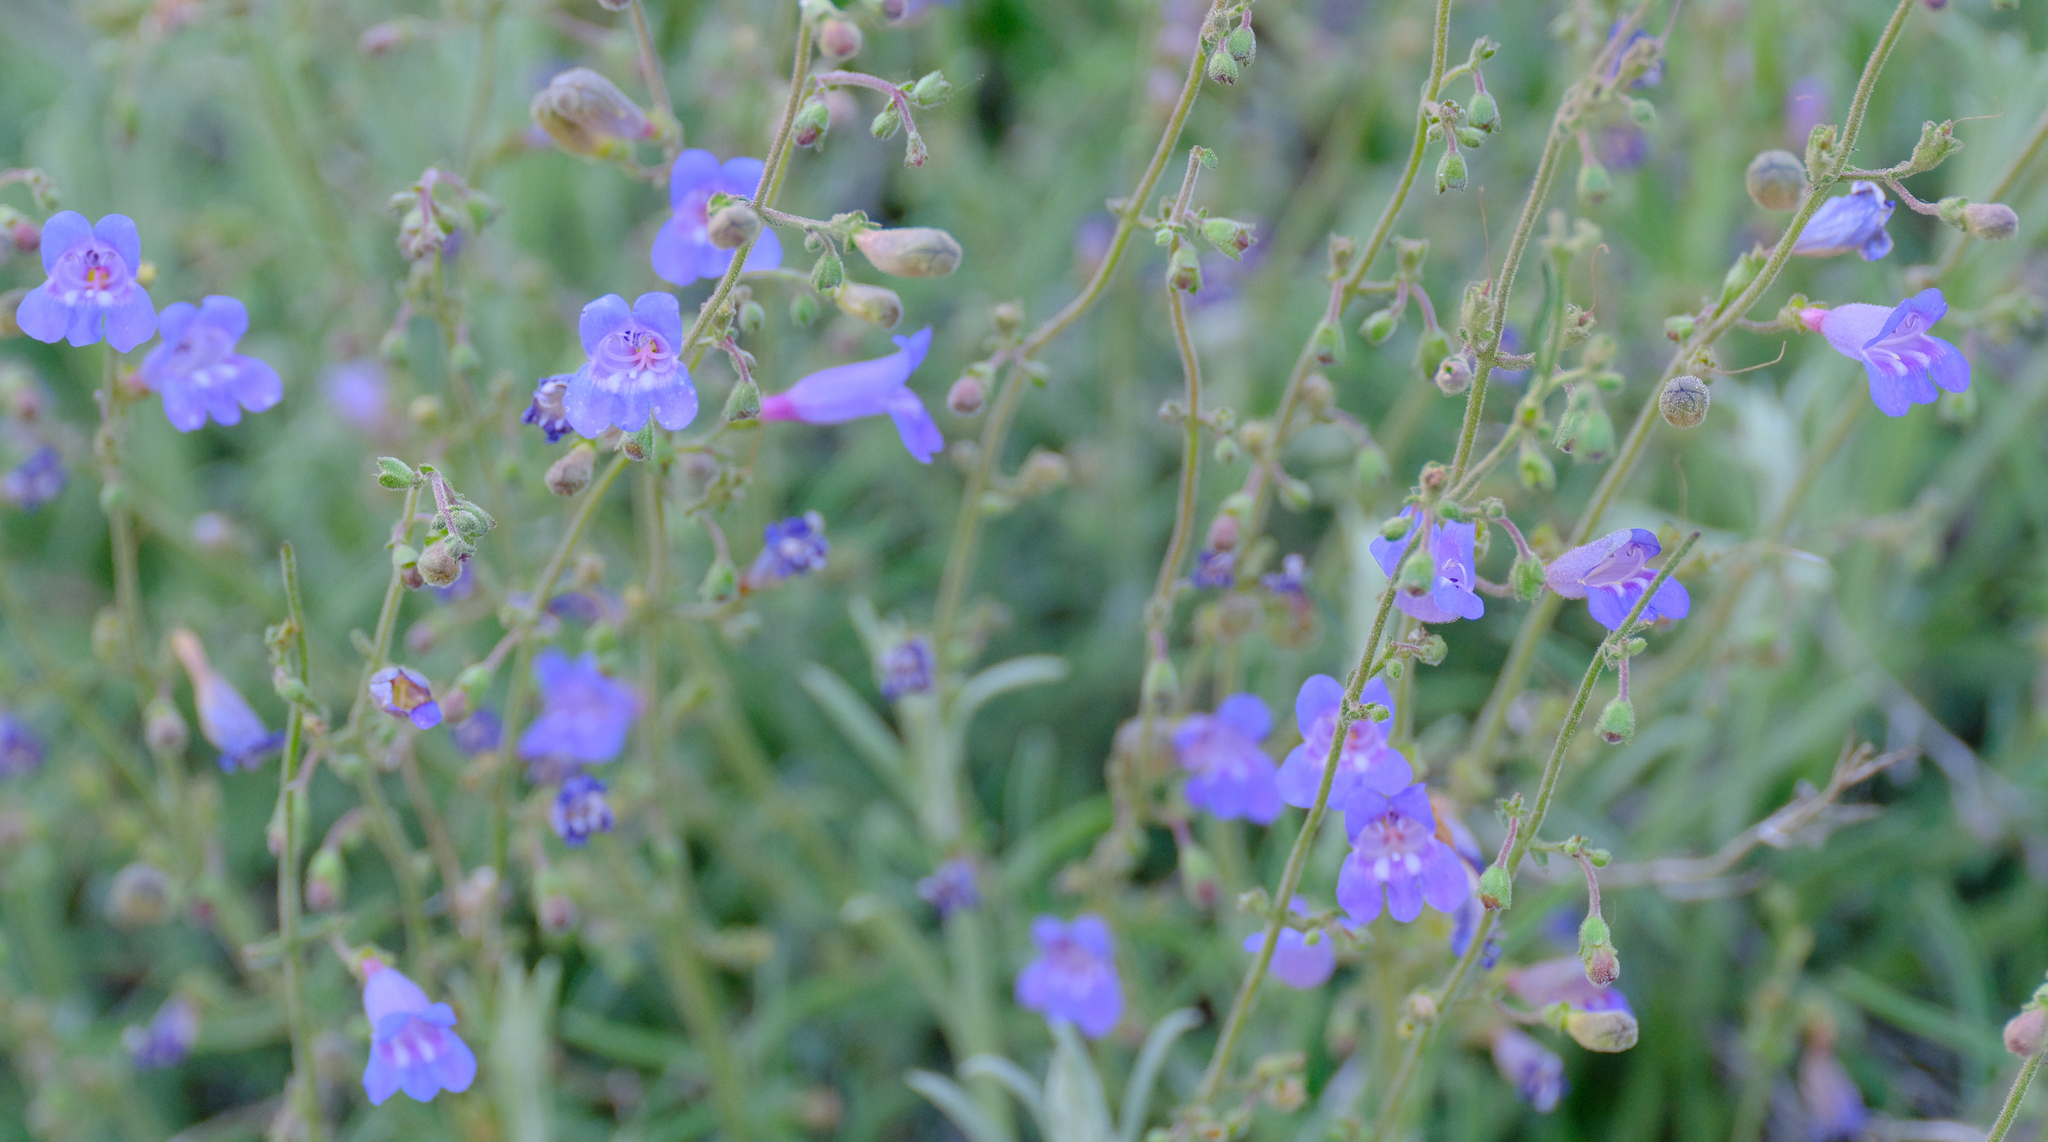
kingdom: Plantae
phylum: Tracheophyta
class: Magnoliopsida
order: Lamiales
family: Plantaginaceae
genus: Penstemon
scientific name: Penstemon laetus
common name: Gay penstemon
